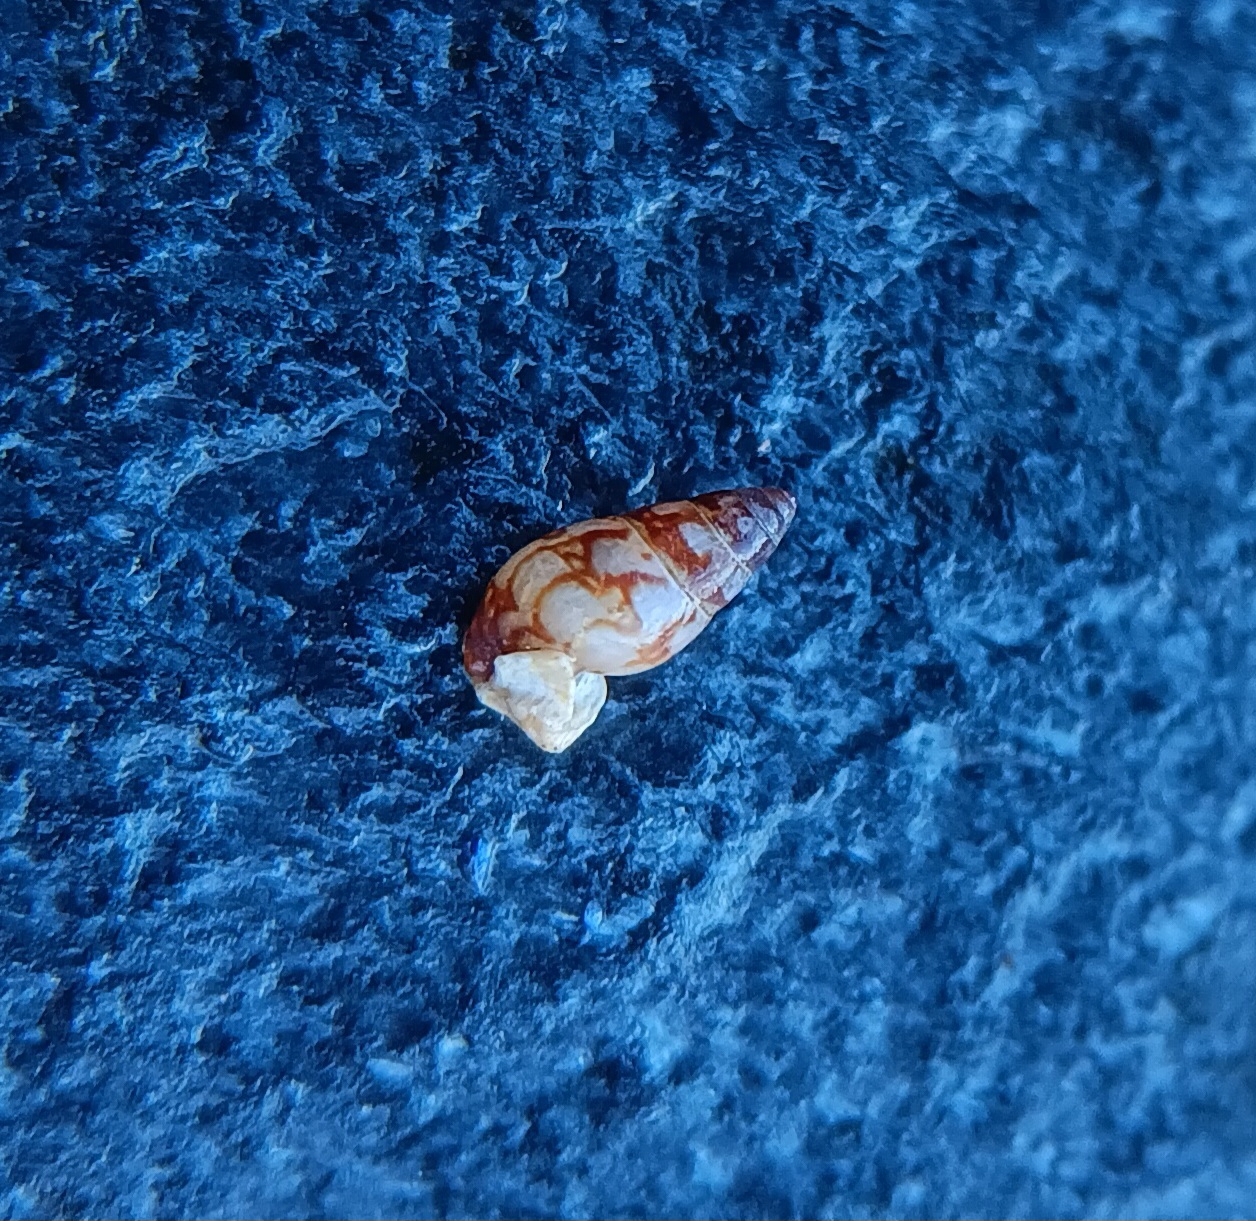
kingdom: Animalia
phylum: Mollusca
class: Gastropoda
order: Neogastropoda
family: Columbellidae
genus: Astyris
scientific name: Astyris lunata
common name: Lunar dovesnail
